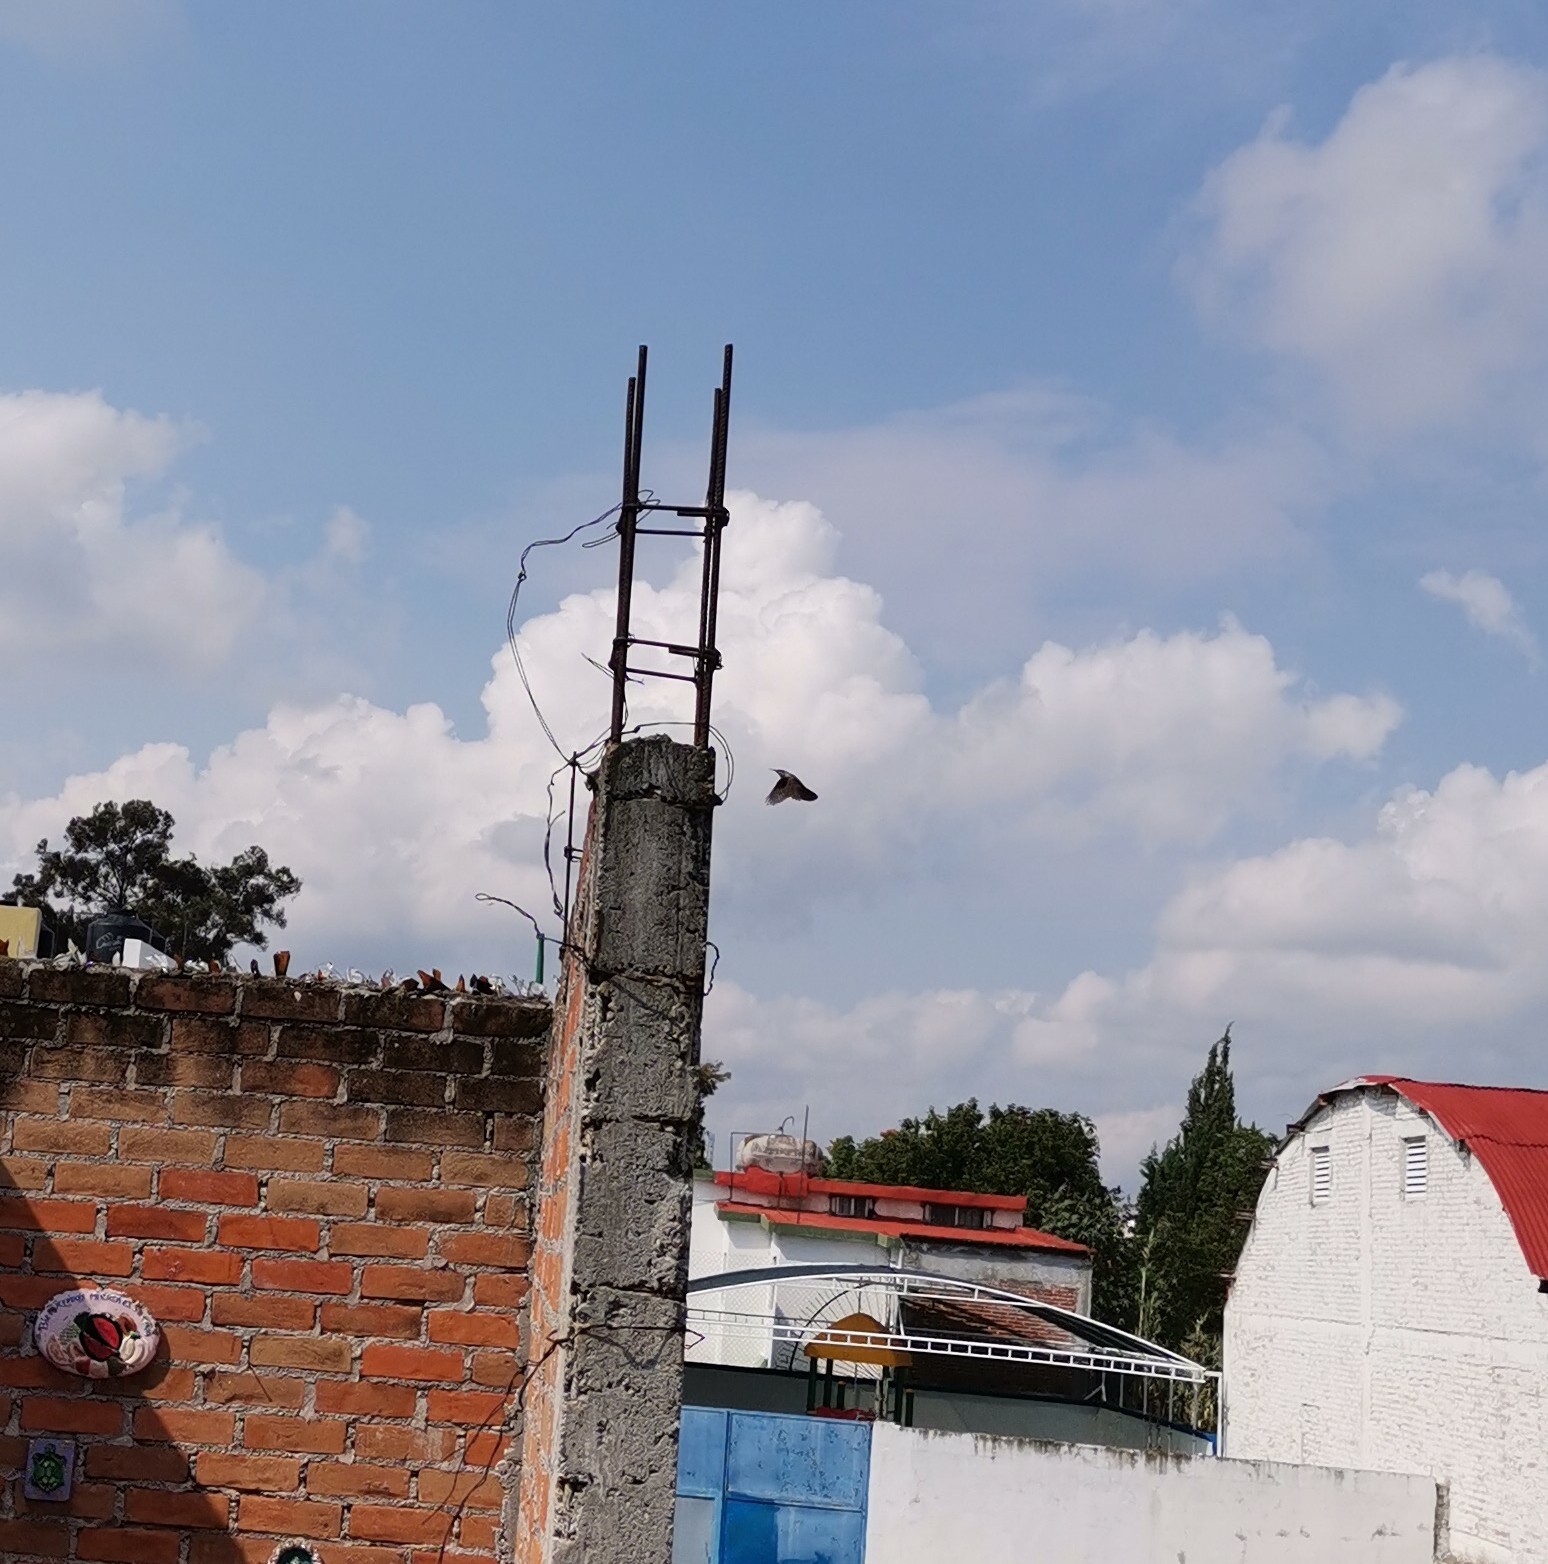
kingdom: Animalia
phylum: Chordata
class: Aves
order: Passeriformes
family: Troglodytidae
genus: Catherpes
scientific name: Catherpes mexicanus
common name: Canyon wren
